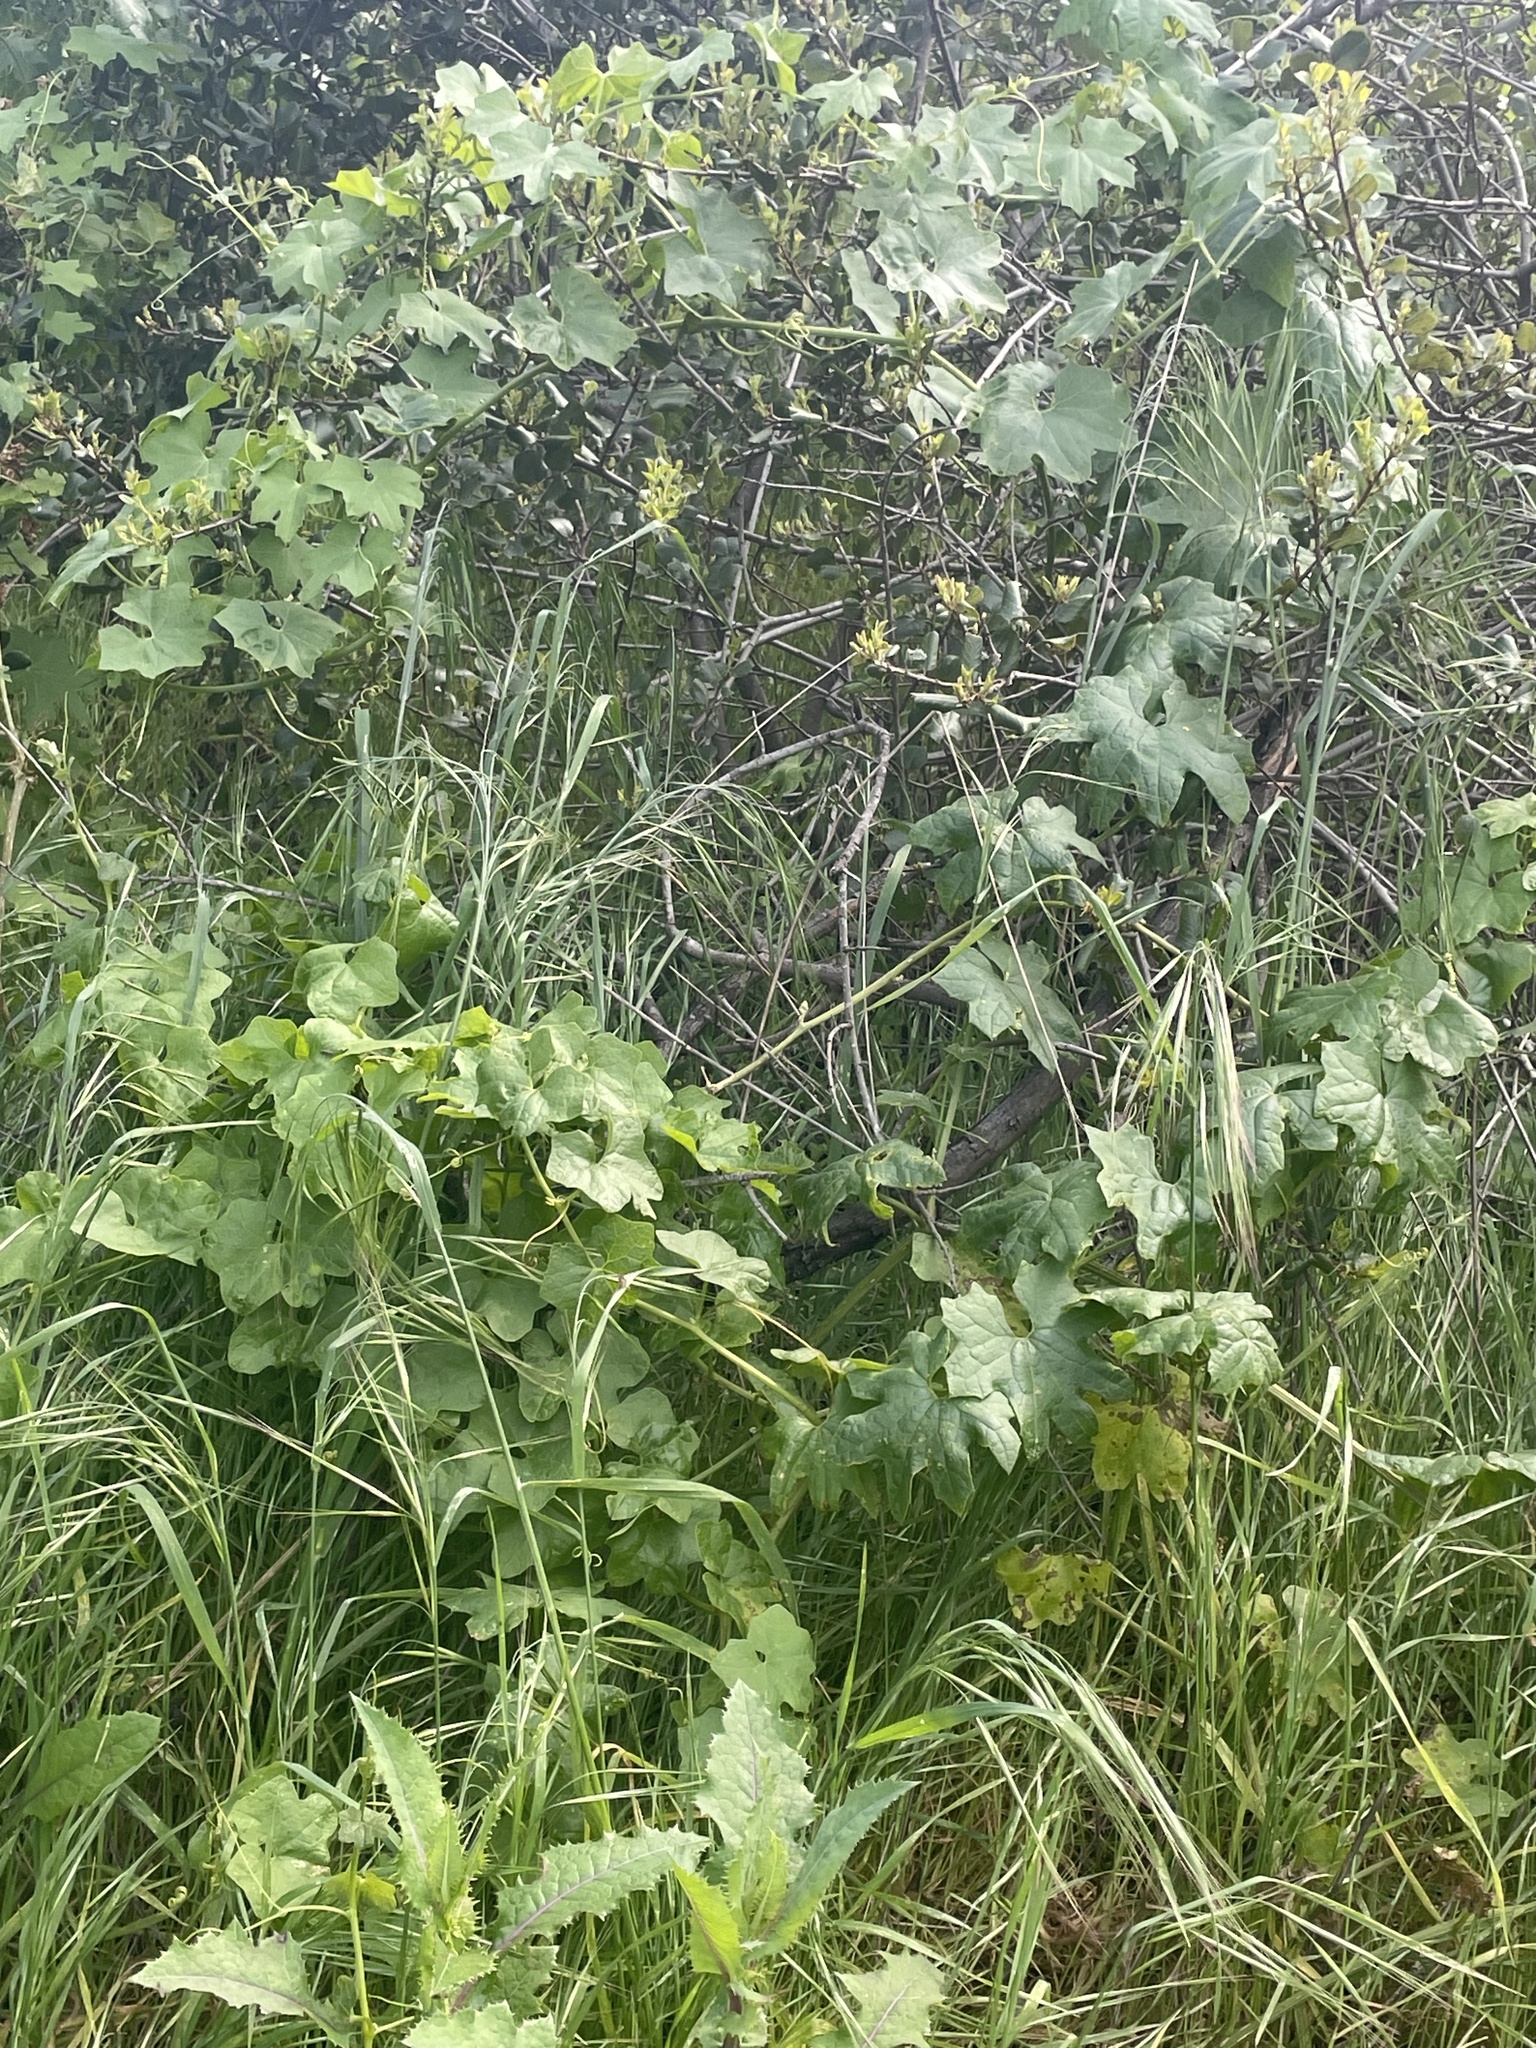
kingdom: Plantae
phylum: Tracheophyta
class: Magnoliopsida
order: Cucurbitales
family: Cucurbitaceae
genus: Marah
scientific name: Marah macrocarpa
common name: Cucamonga manroot
